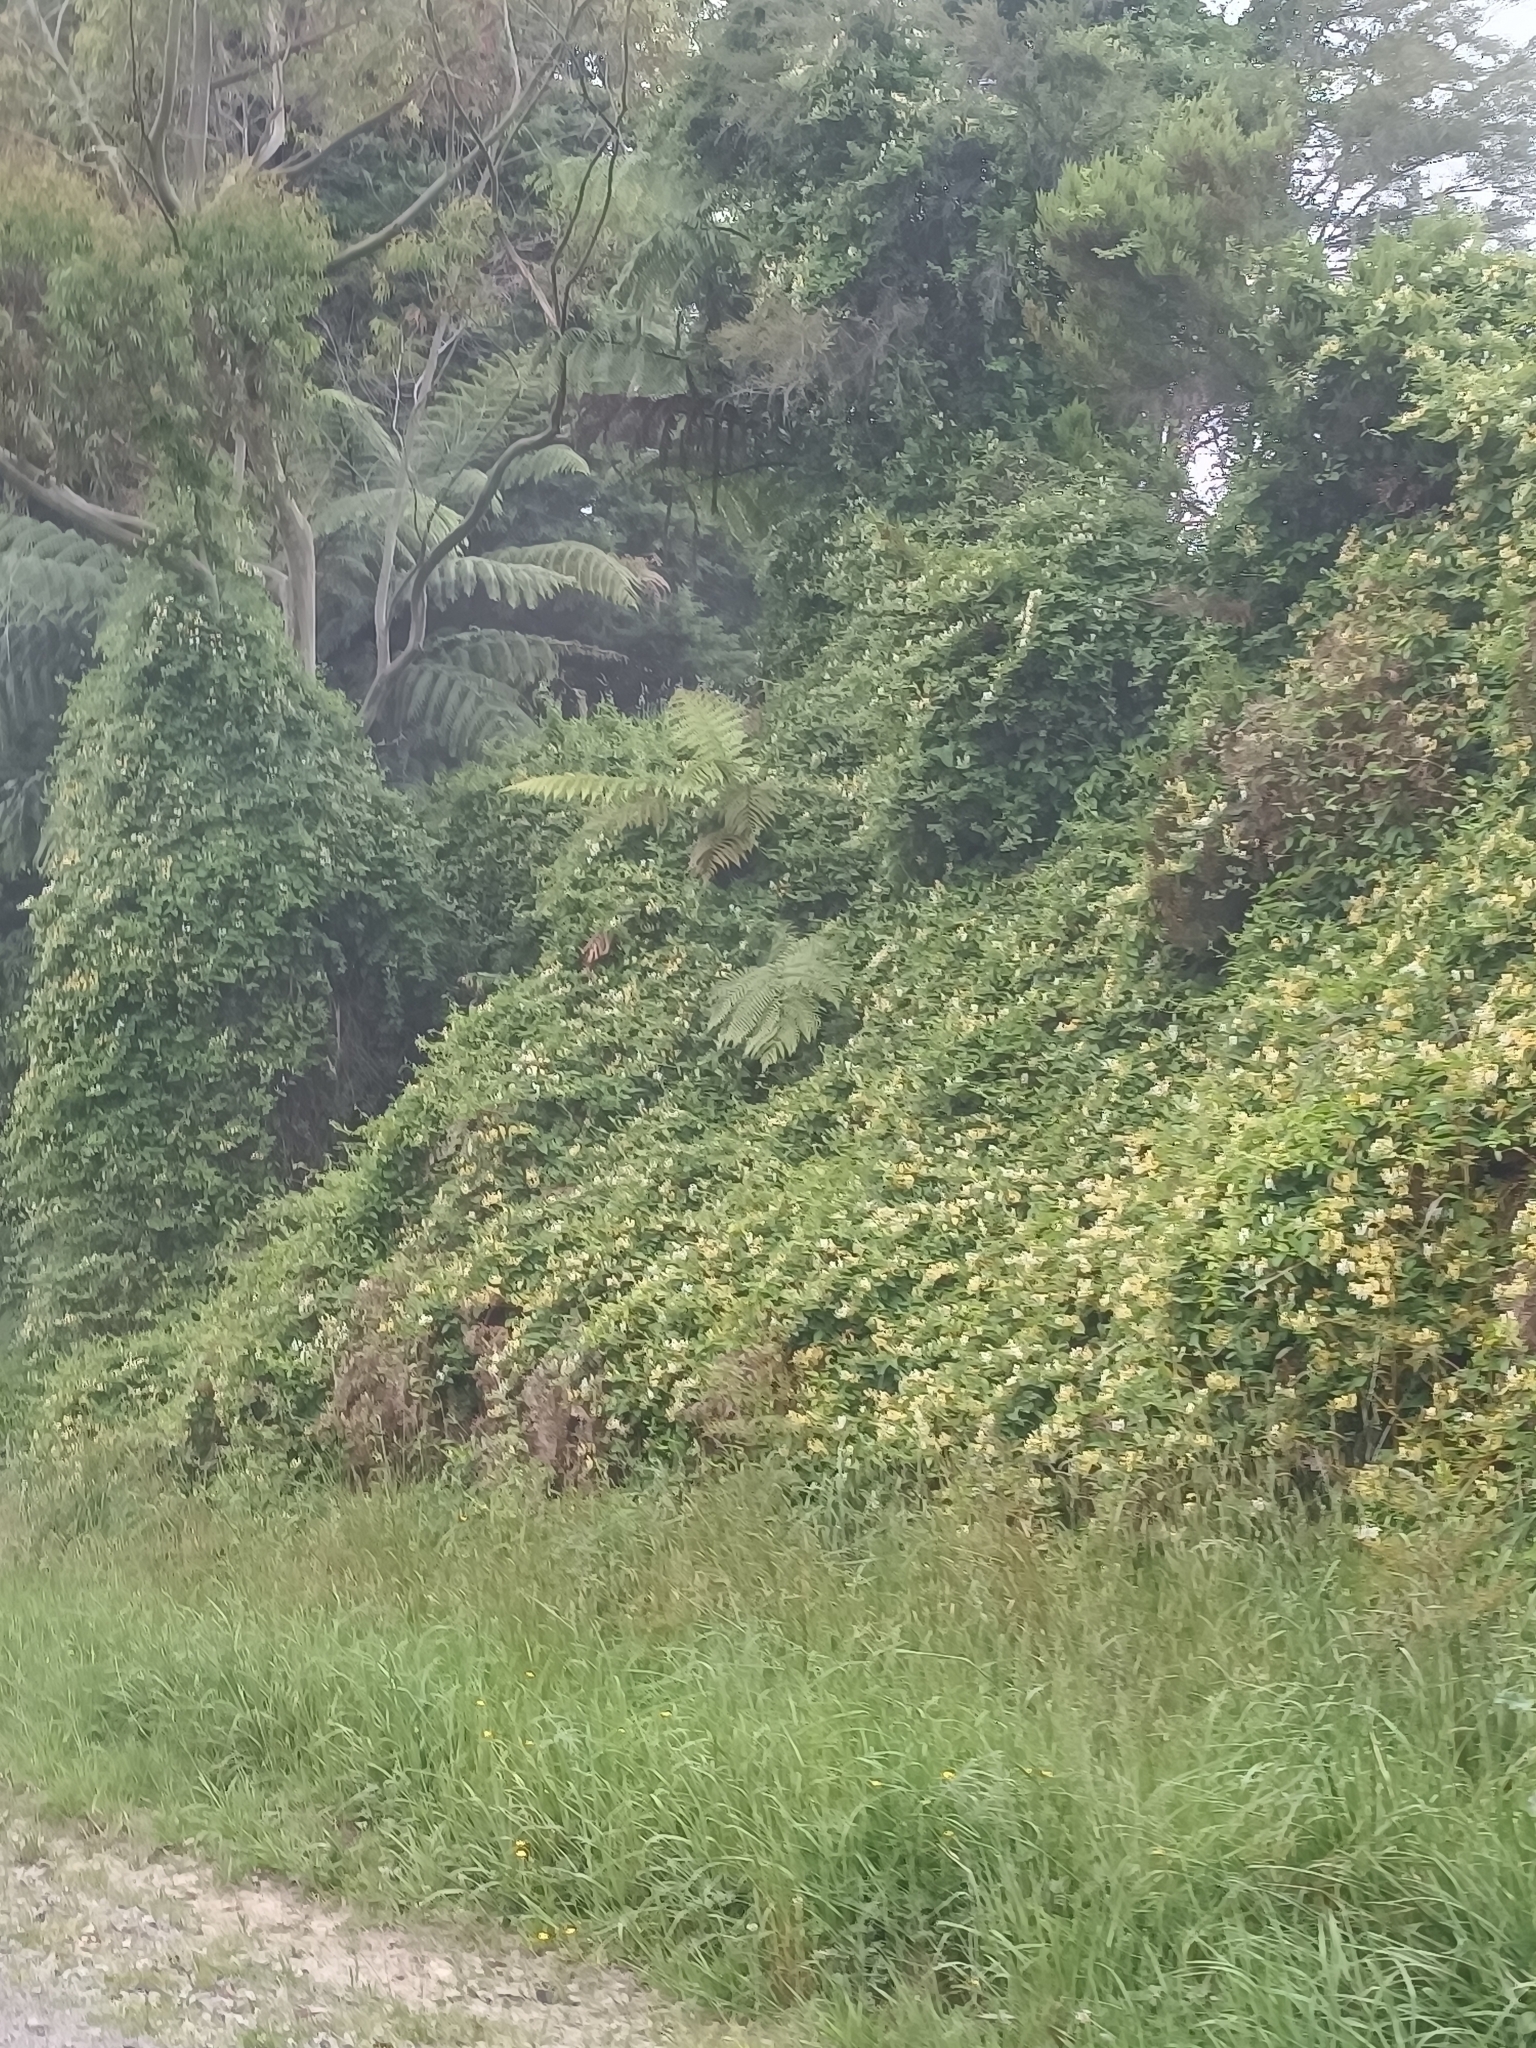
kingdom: Plantae
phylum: Tracheophyta
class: Magnoliopsida
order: Dipsacales
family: Caprifoliaceae
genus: Lonicera
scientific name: Lonicera japonica
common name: Japanese honeysuckle
